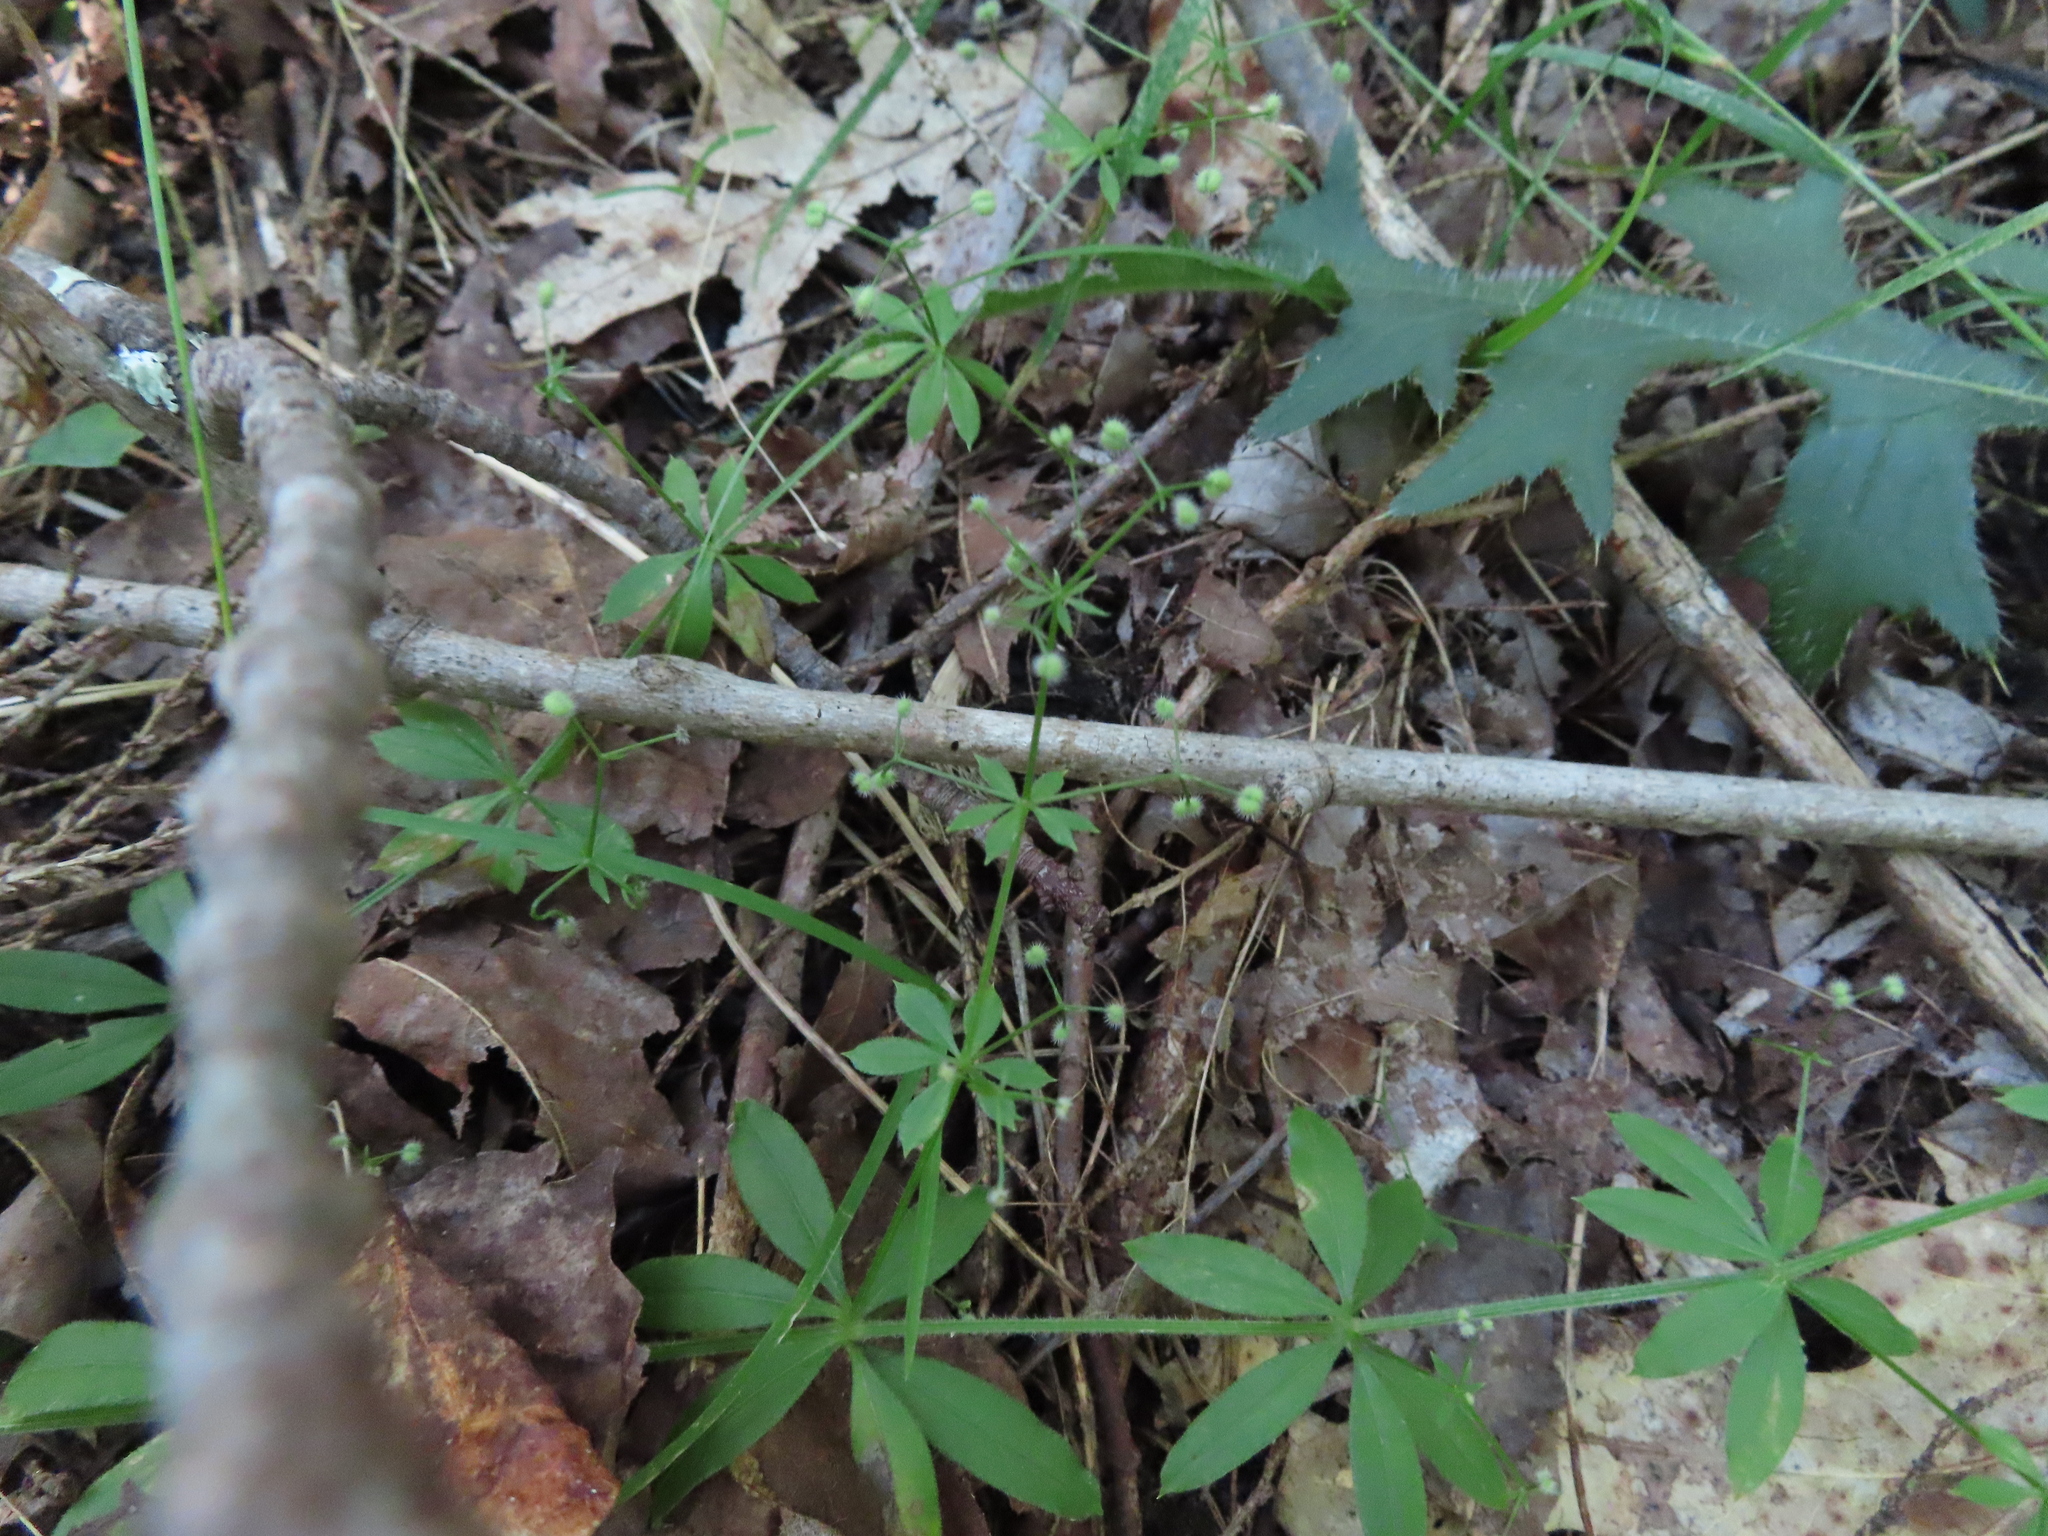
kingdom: Plantae
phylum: Tracheophyta
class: Magnoliopsida
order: Gentianales
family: Rubiaceae
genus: Galium
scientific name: Galium triflorum
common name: Fragrant bedstraw
